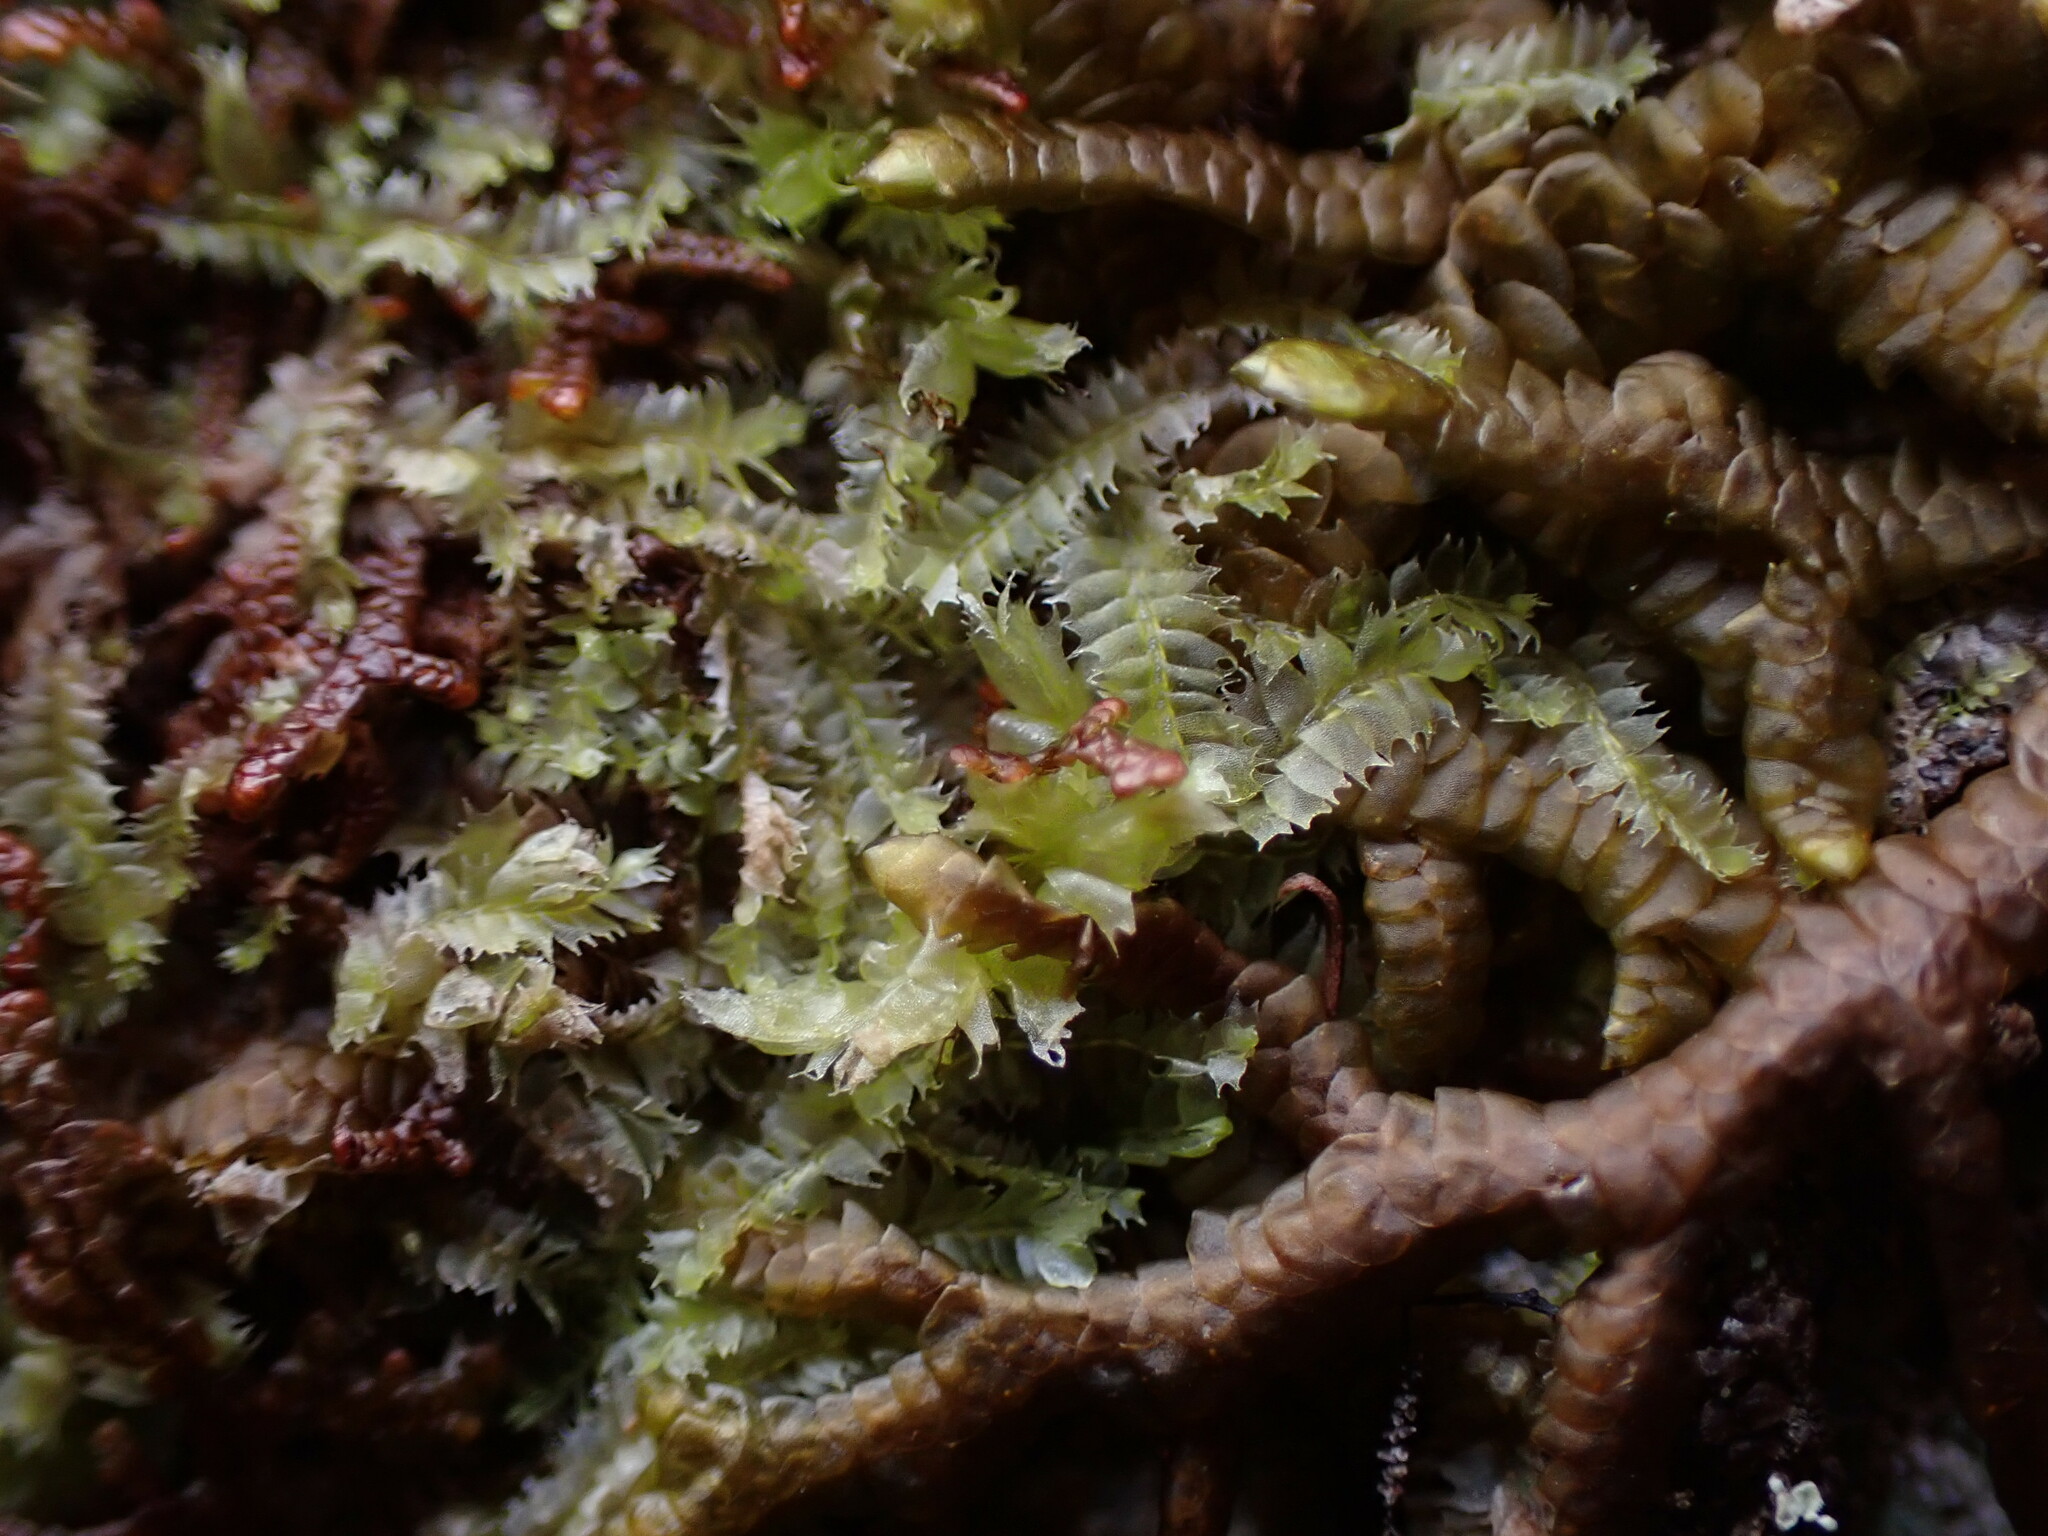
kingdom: Plantae
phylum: Marchantiophyta
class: Jungermanniopsida
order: Jungermanniales
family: Lophocoleaceae
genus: Lophocolea
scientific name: Lophocolea bidentata
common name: Bifid crestwort
